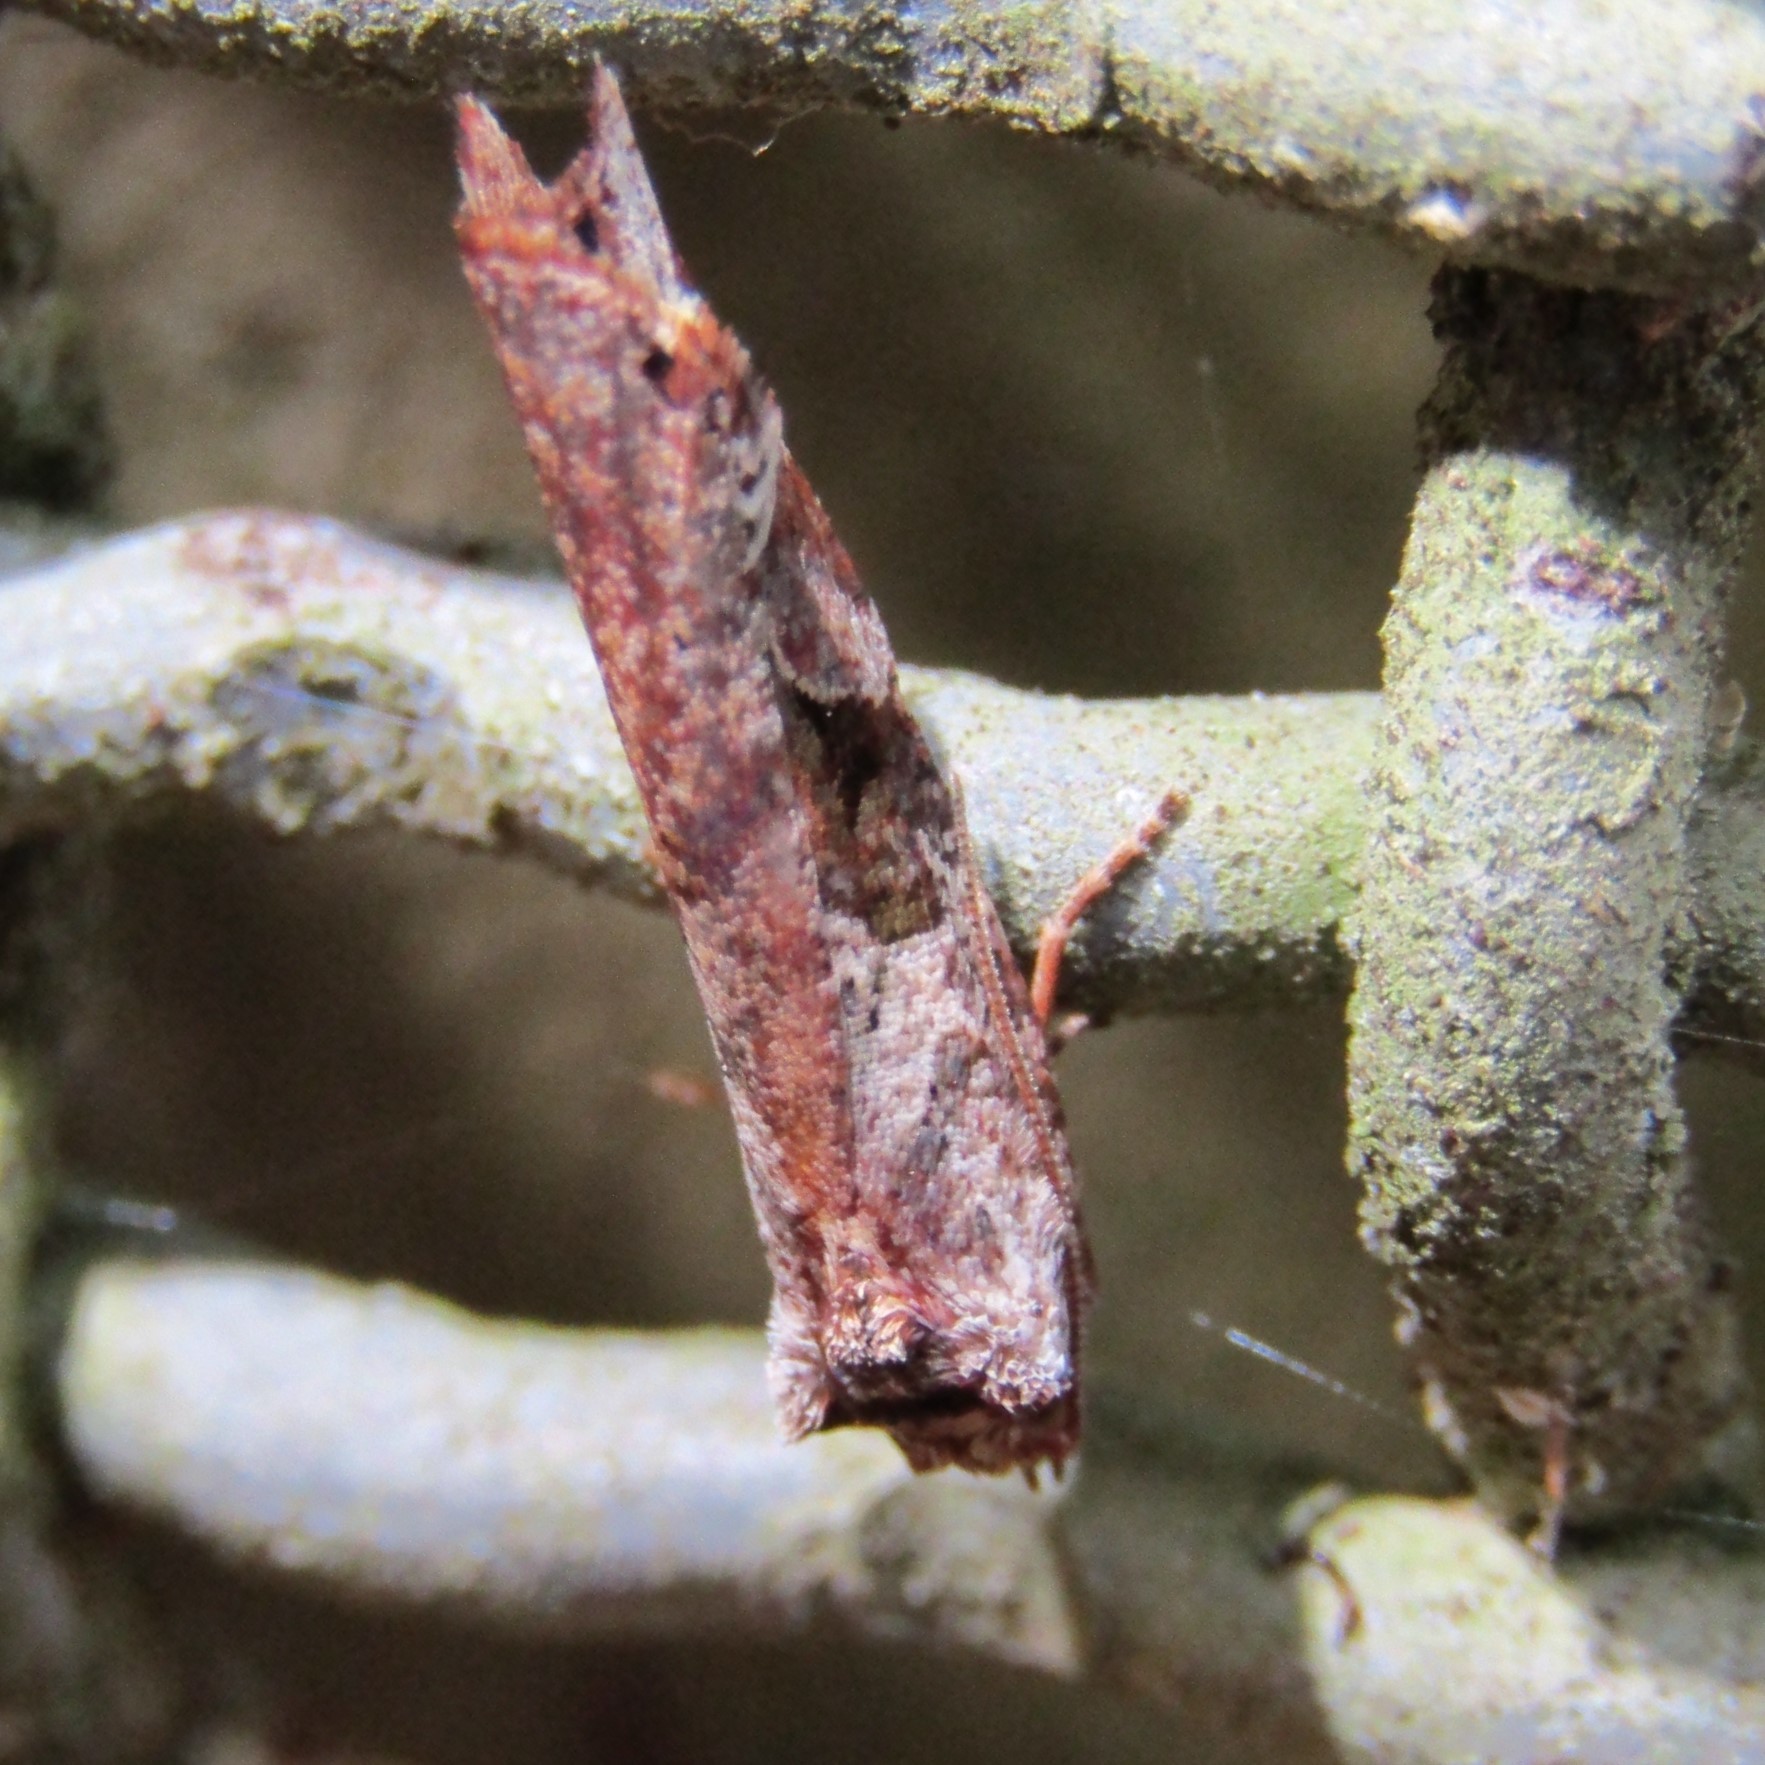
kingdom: Animalia
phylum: Arthropoda
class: Insecta
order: Lepidoptera
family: Tortricidae
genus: Epalxiphora
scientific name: Epalxiphora axenana
